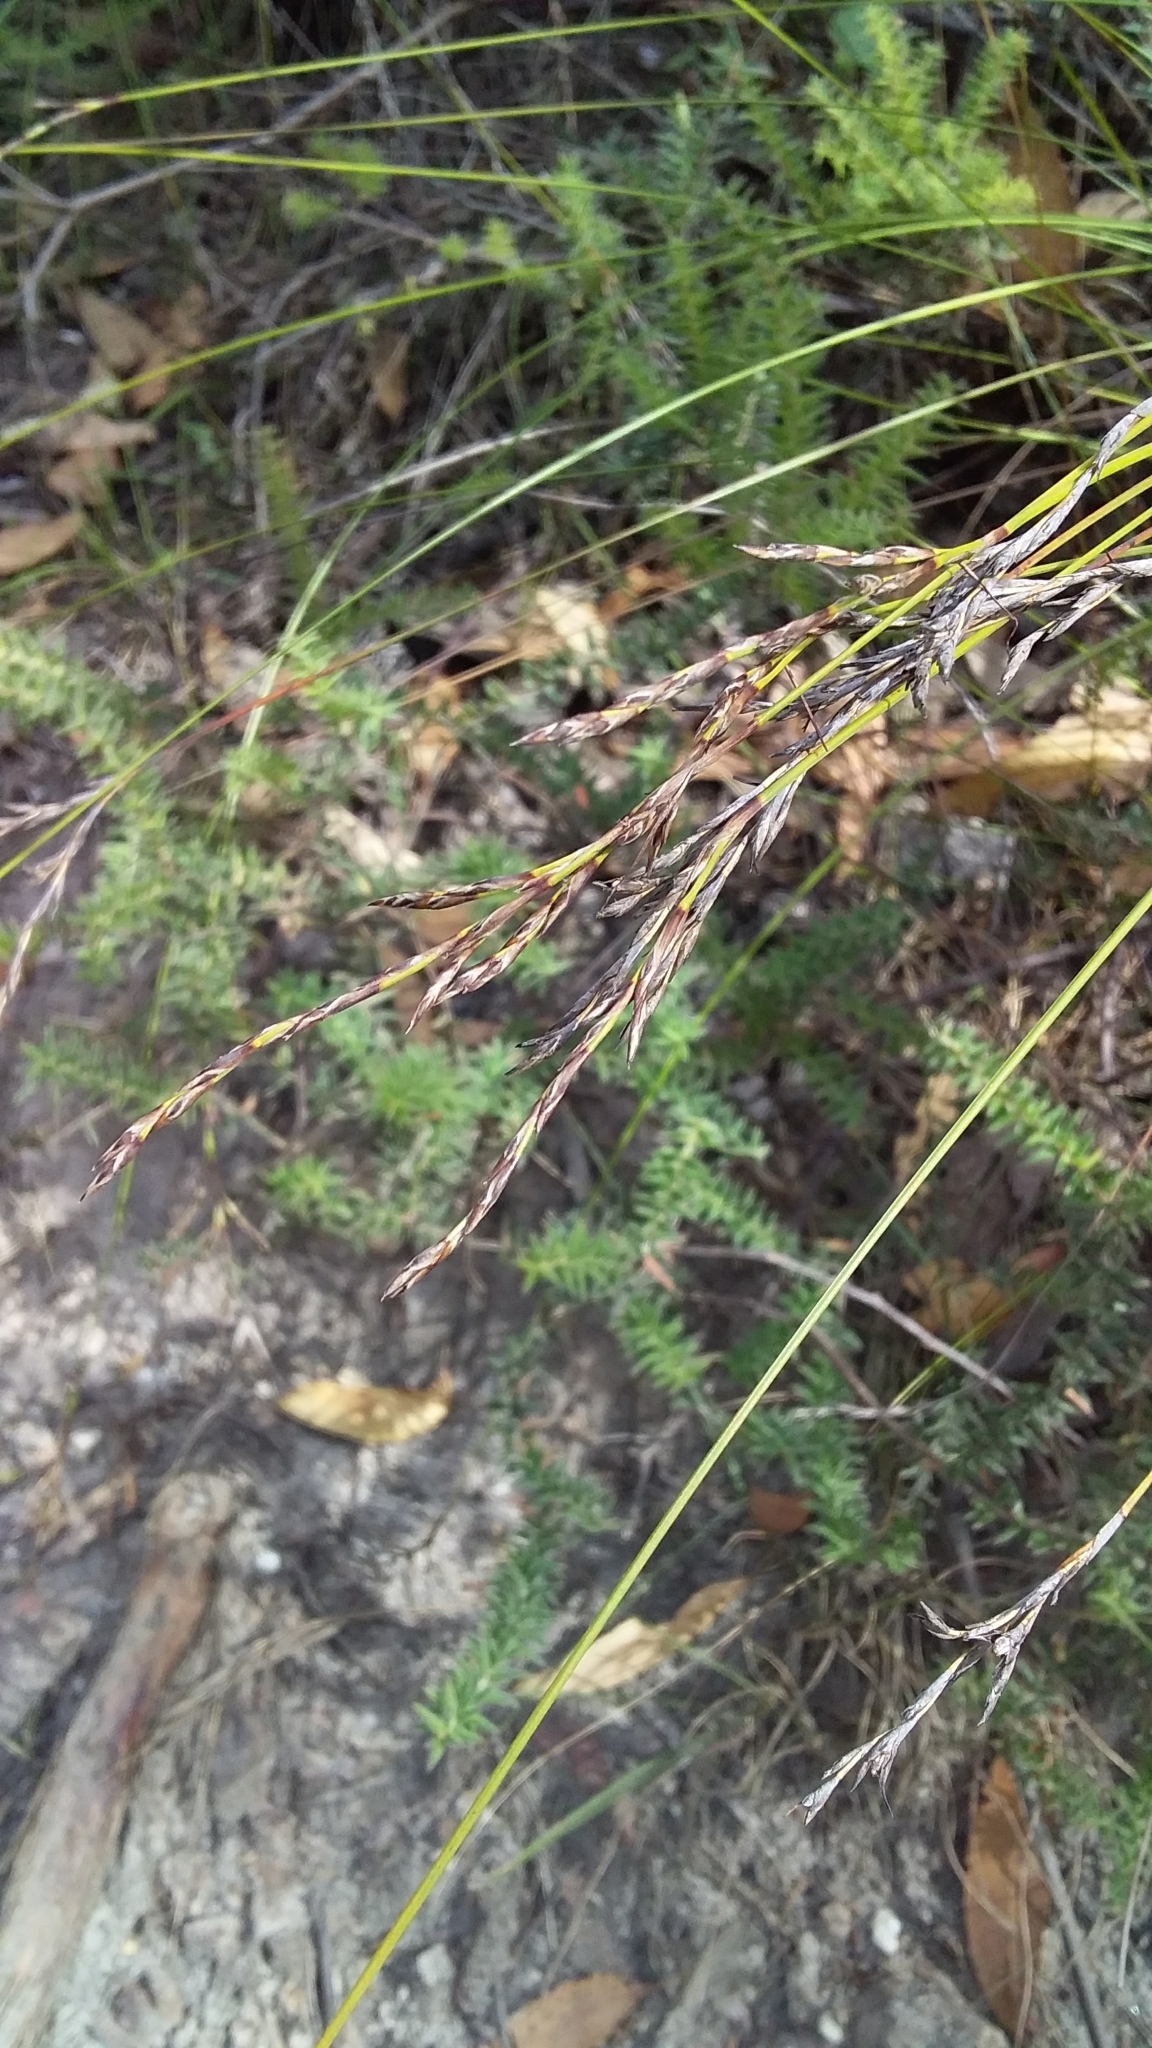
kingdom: Plantae
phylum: Tracheophyta
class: Liliopsida
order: Poales
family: Cyperaceae
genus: Lepidosperma
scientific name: Lepidosperma semiteres
